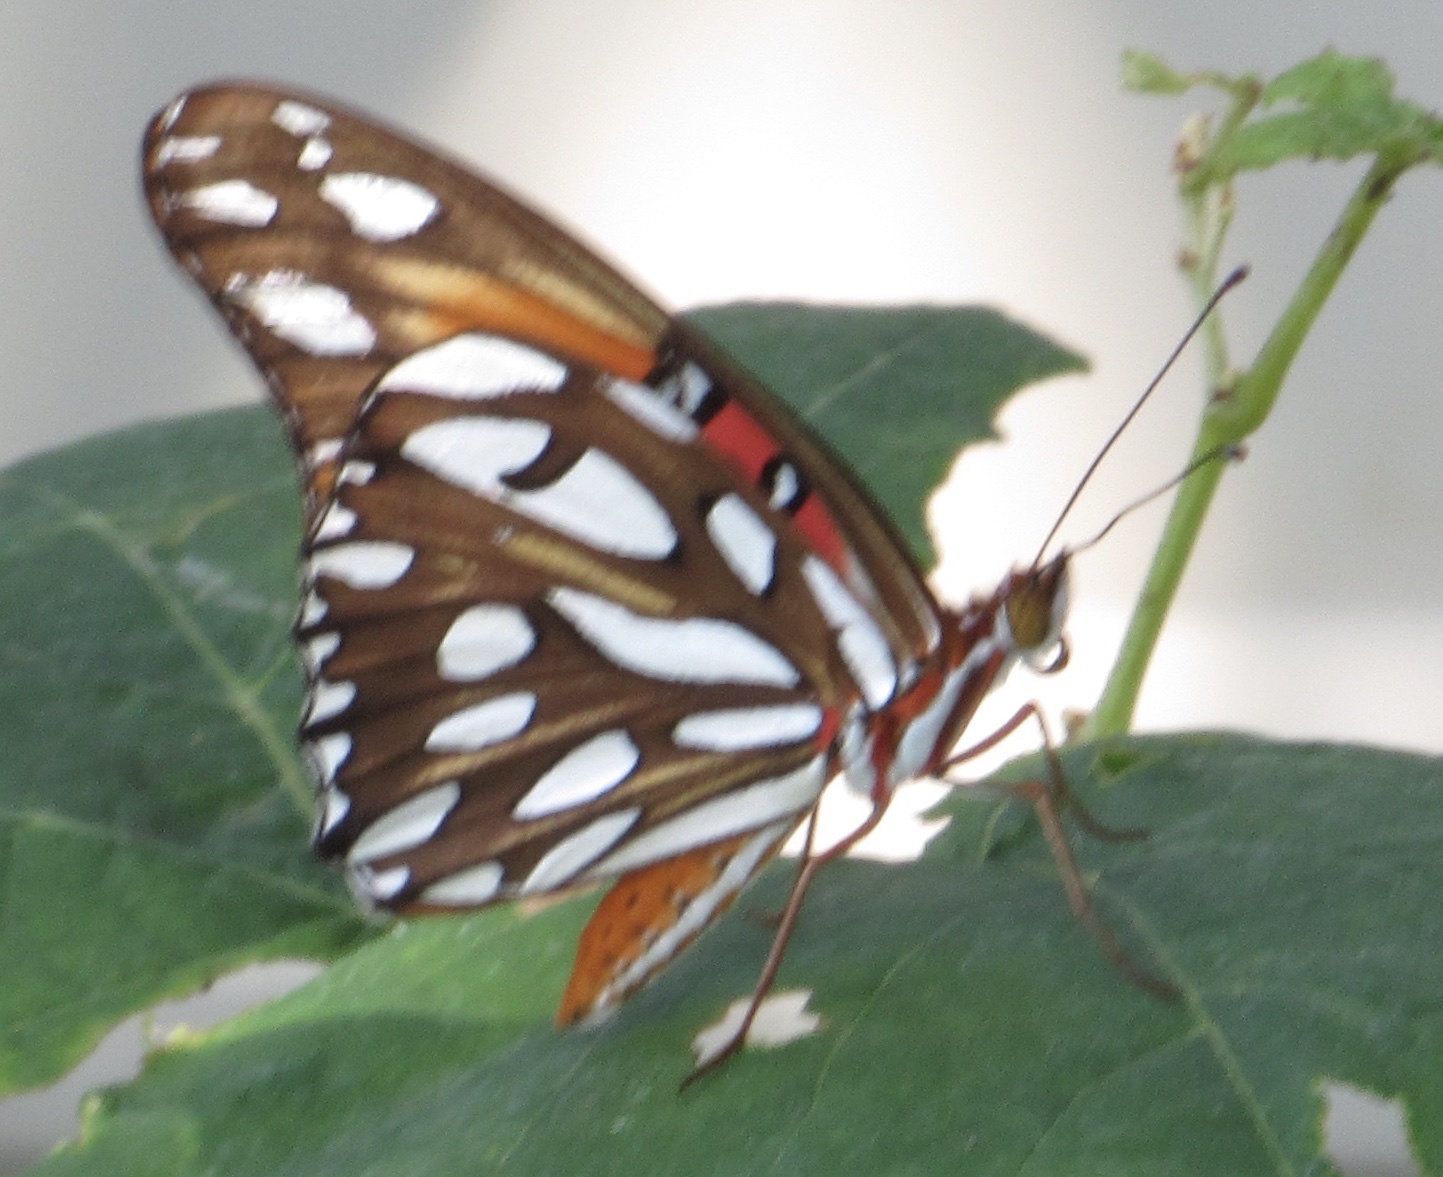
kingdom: Animalia
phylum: Arthropoda
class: Insecta
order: Lepidoptera
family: Nymphalidae
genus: Dione
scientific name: Dione vanillae
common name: Gulf fritillary
